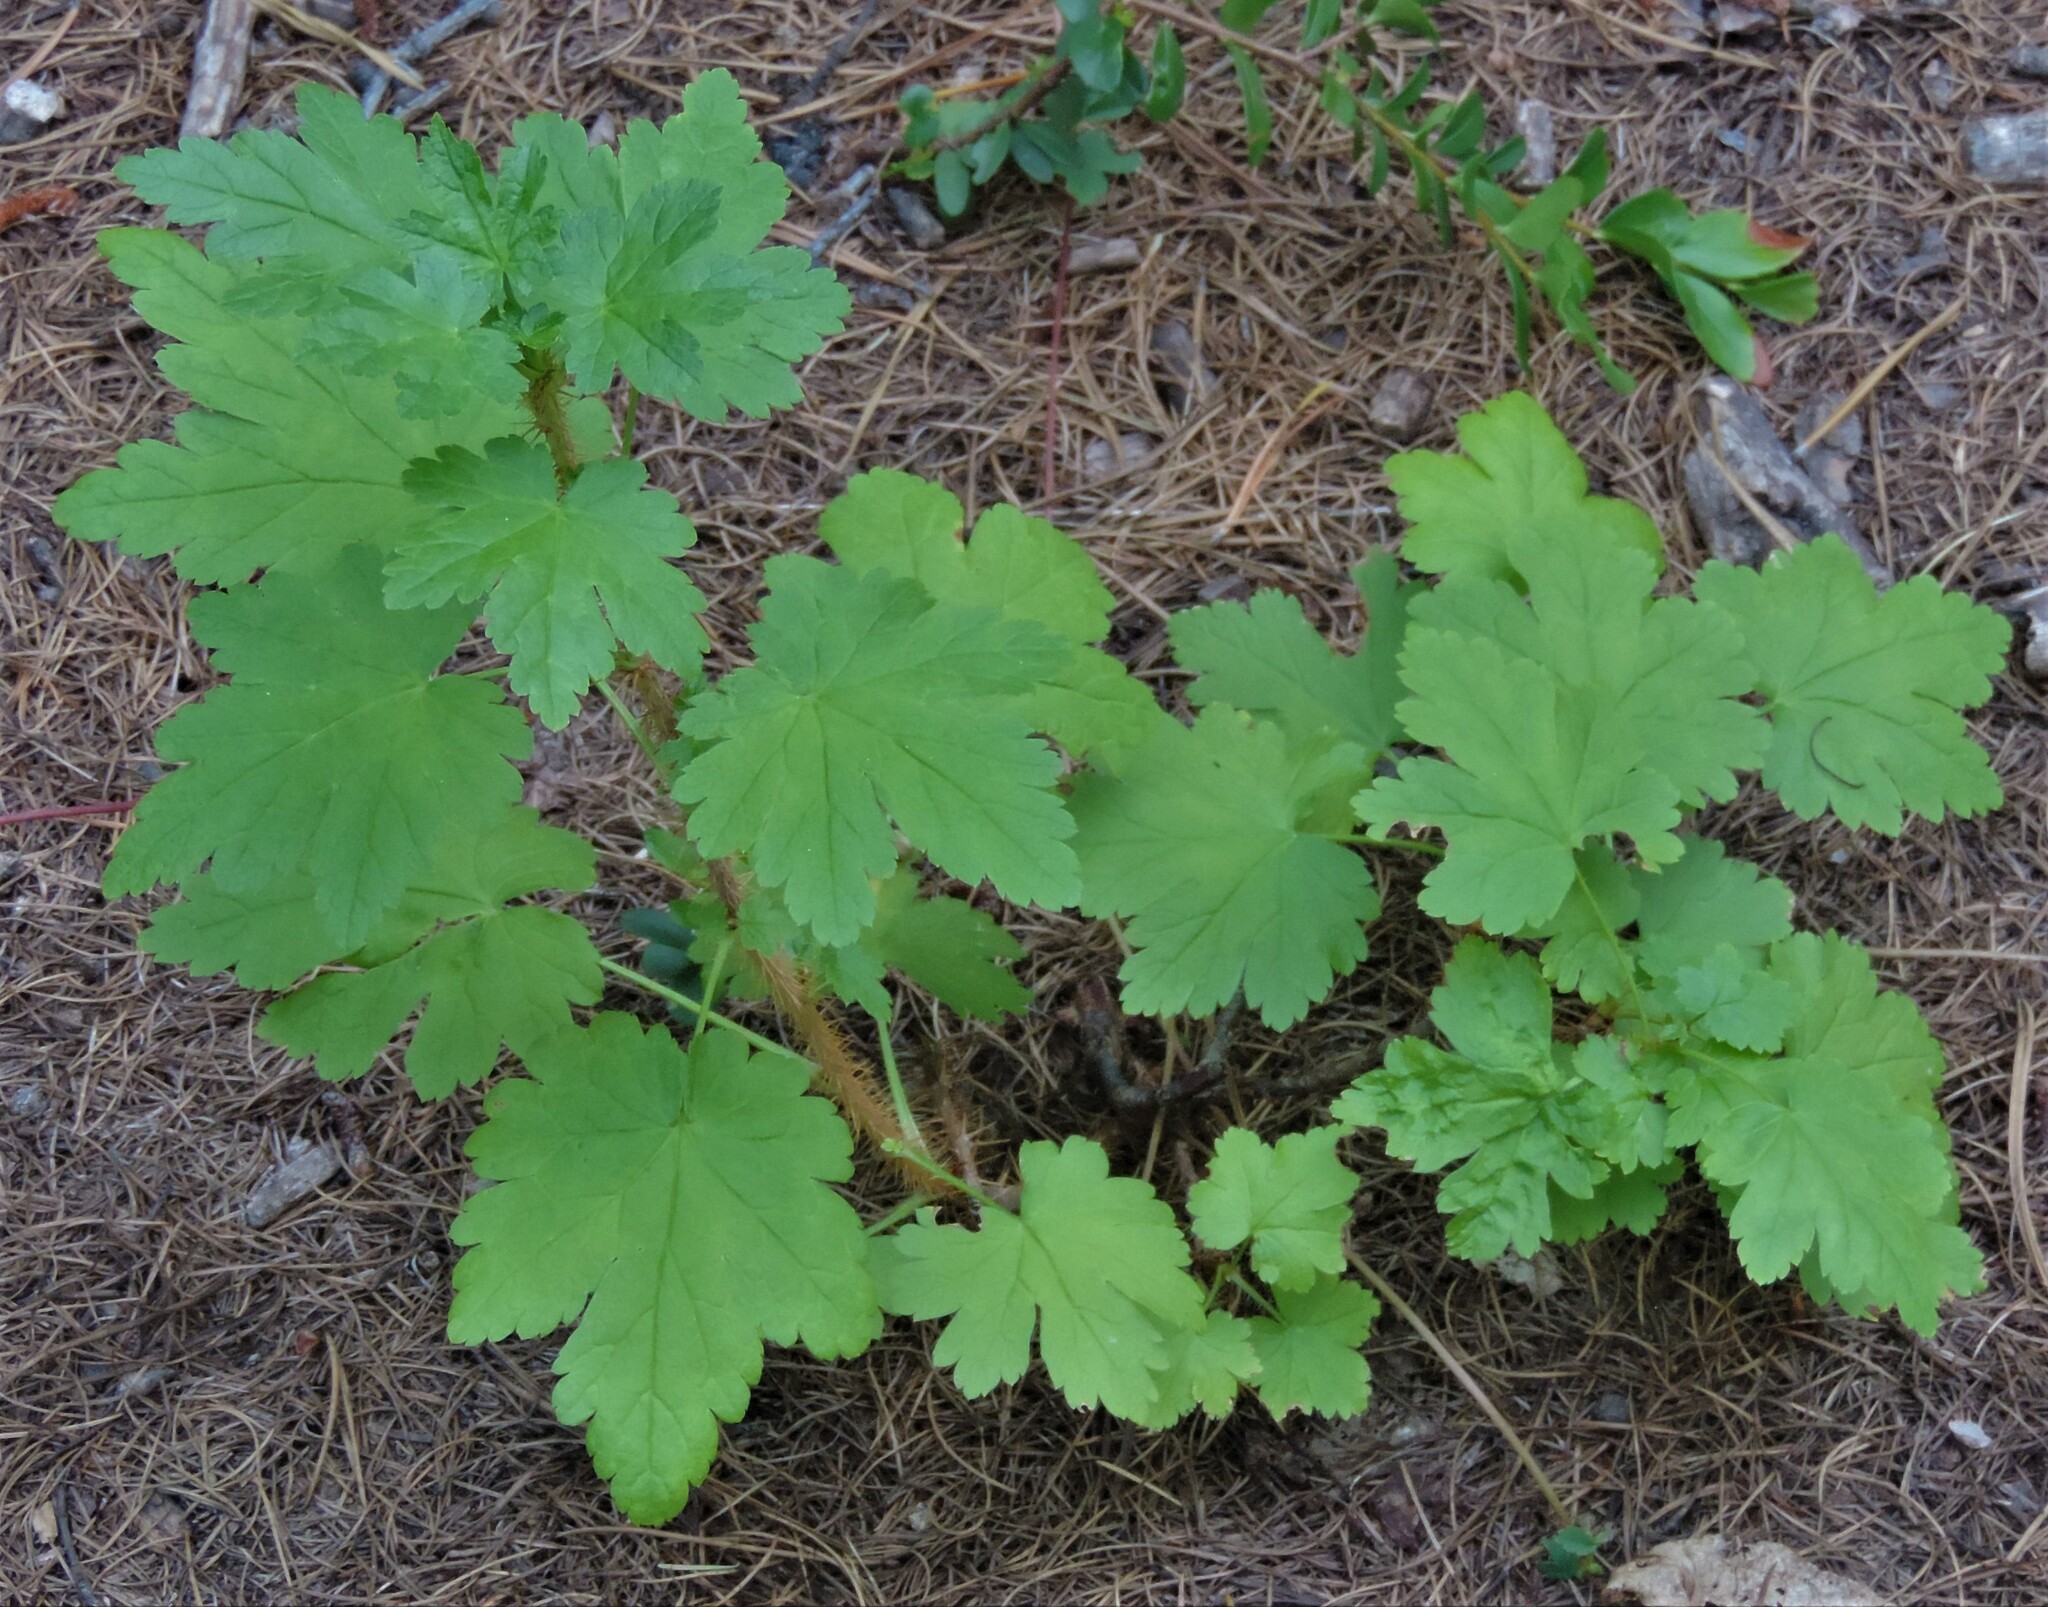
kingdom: Plantae
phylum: Tracheophyta
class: Magnoliopsida
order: Saxifragales
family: Grossulariaceae
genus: Ribes
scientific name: Ribes lacustre
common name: Black gooseberry
